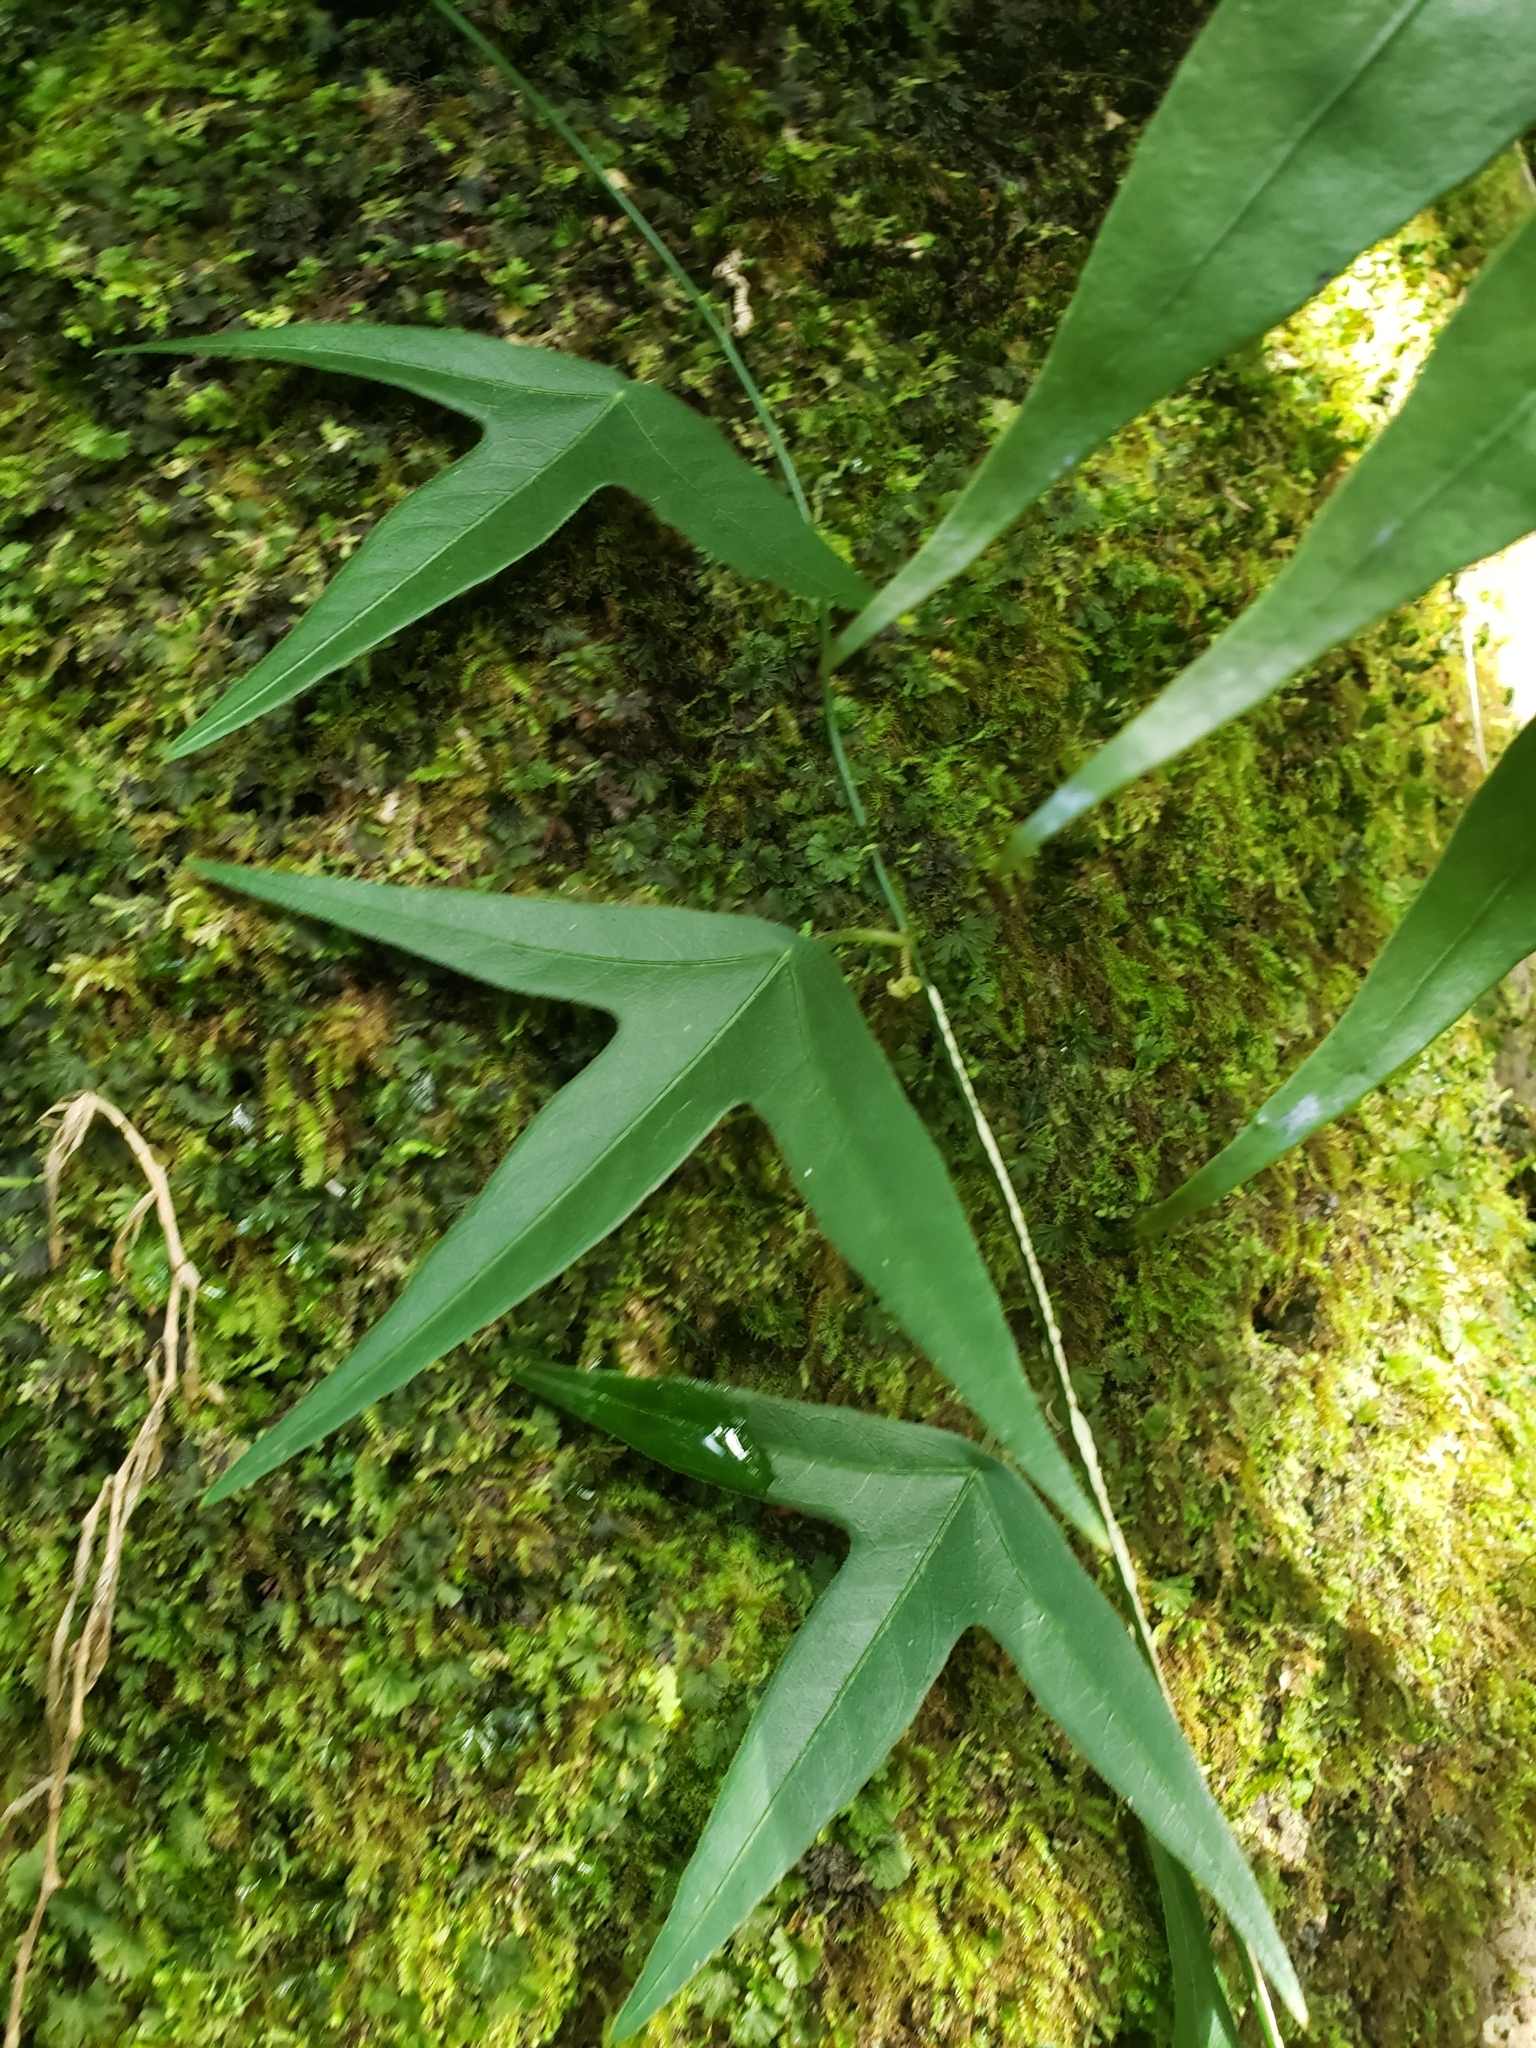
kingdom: Plantae
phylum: Tracheophyta
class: Magnoliopsida
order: Malpighiales
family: Passifloraceae
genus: Passiflora
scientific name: Passiflora suberosa
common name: Wild passionfruit
